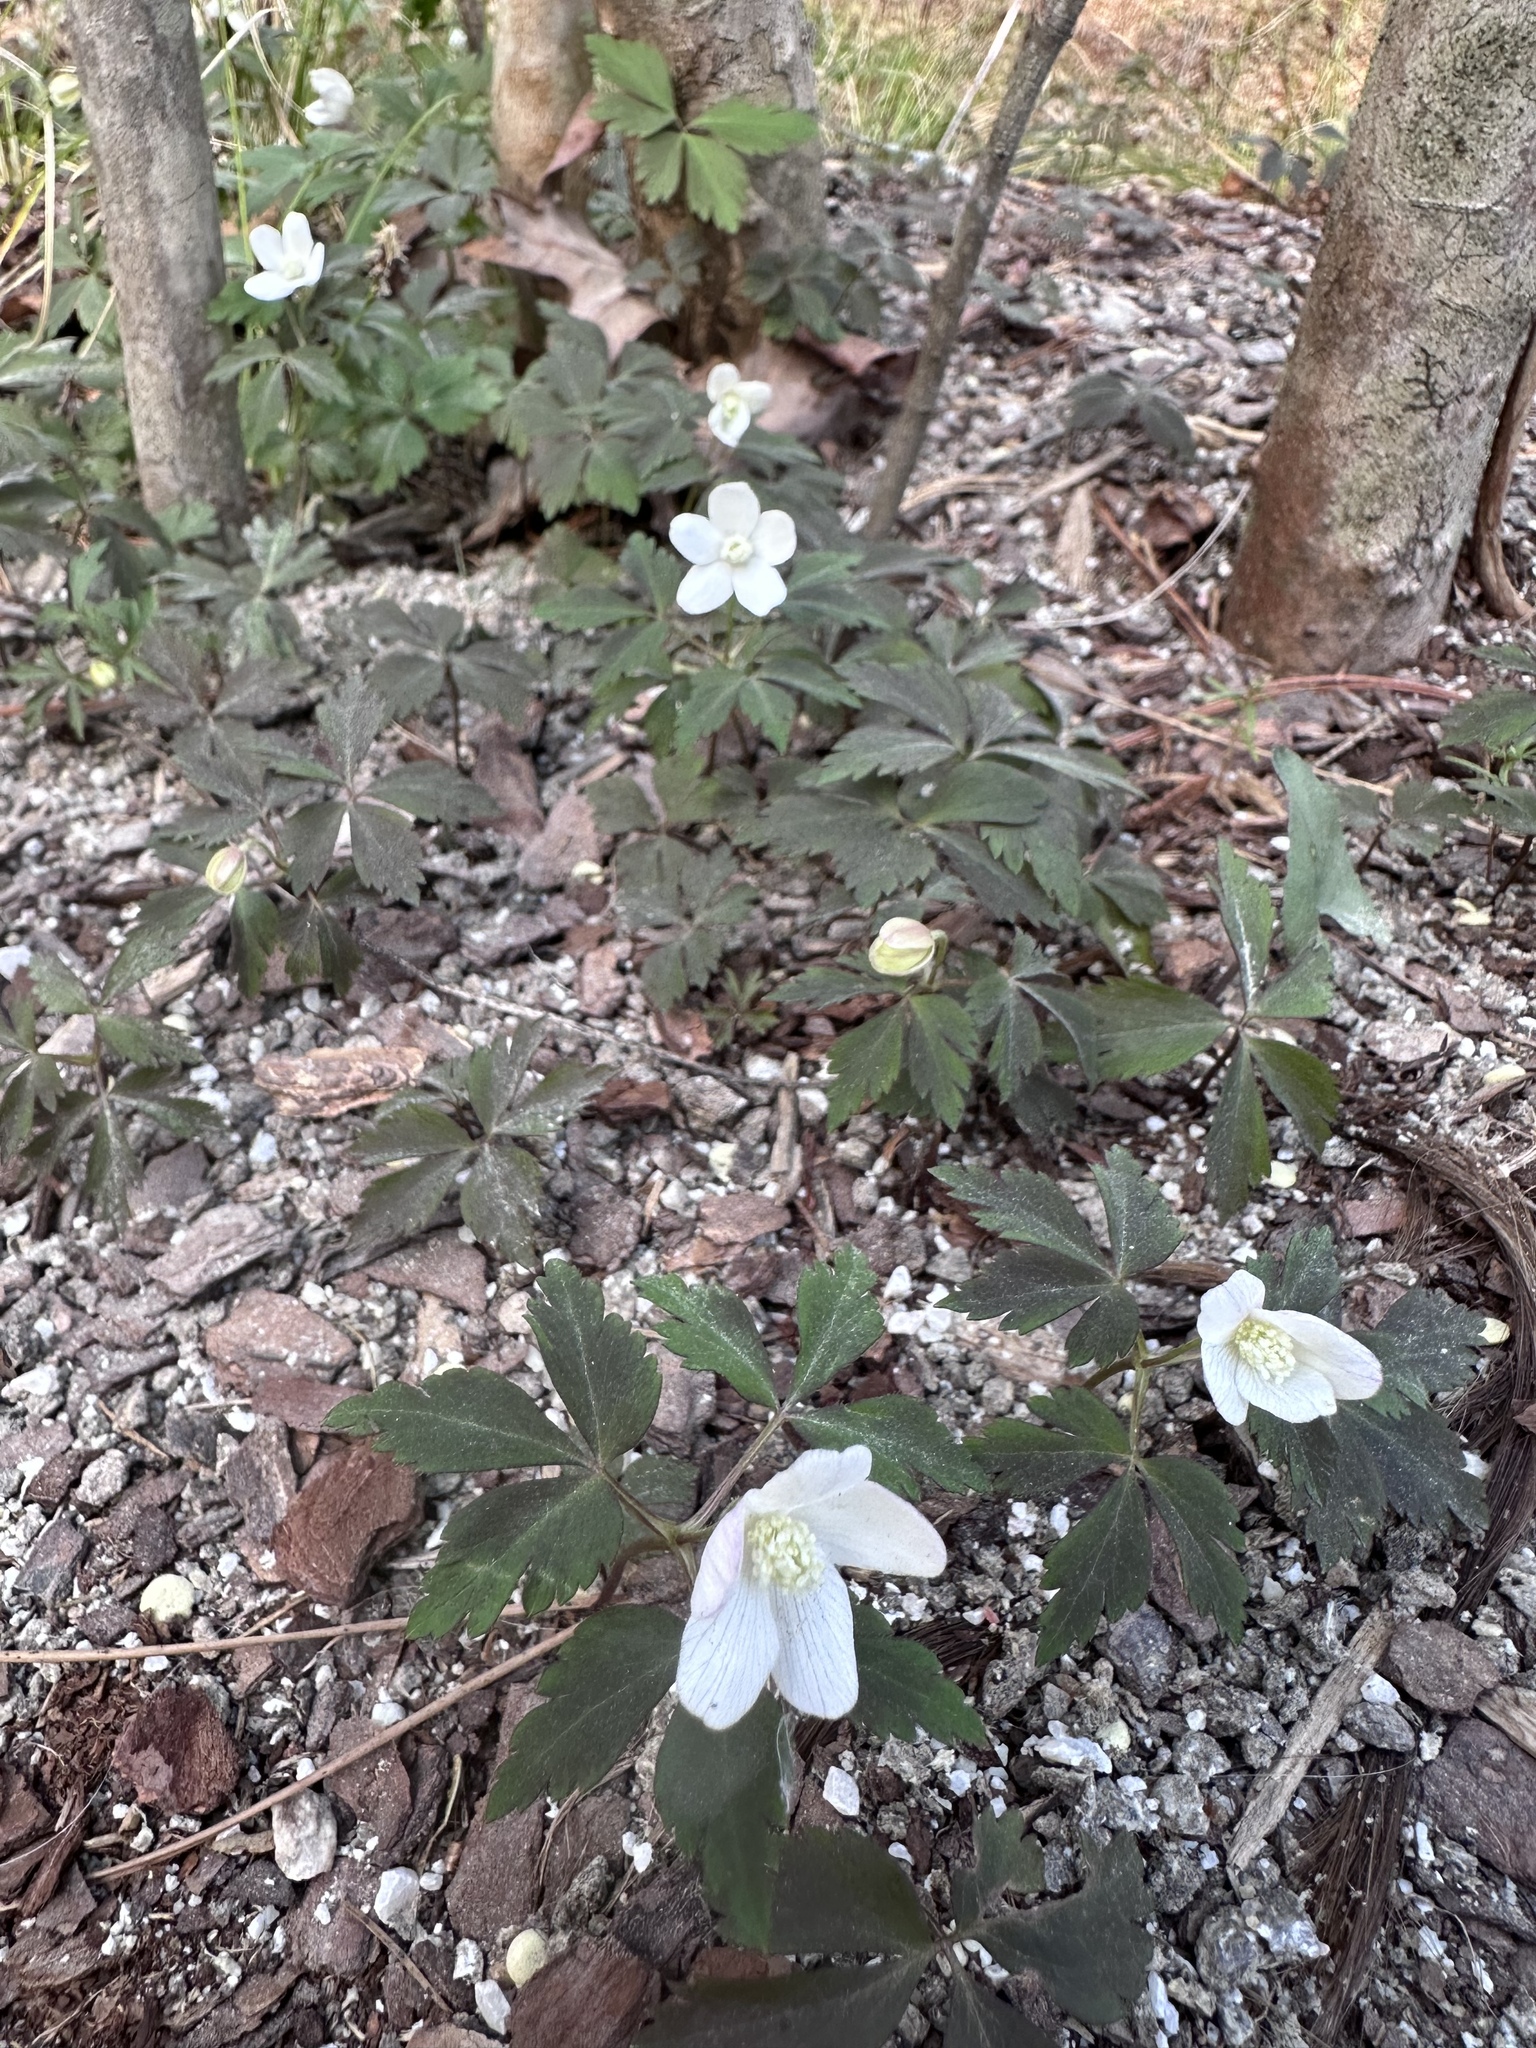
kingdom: Plantae
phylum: Tracheophyta
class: Magnoliopsida
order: Ranunculales
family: Ranunculaceae
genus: Anemone
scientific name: Anemone quinquefolia
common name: Wood anemone
